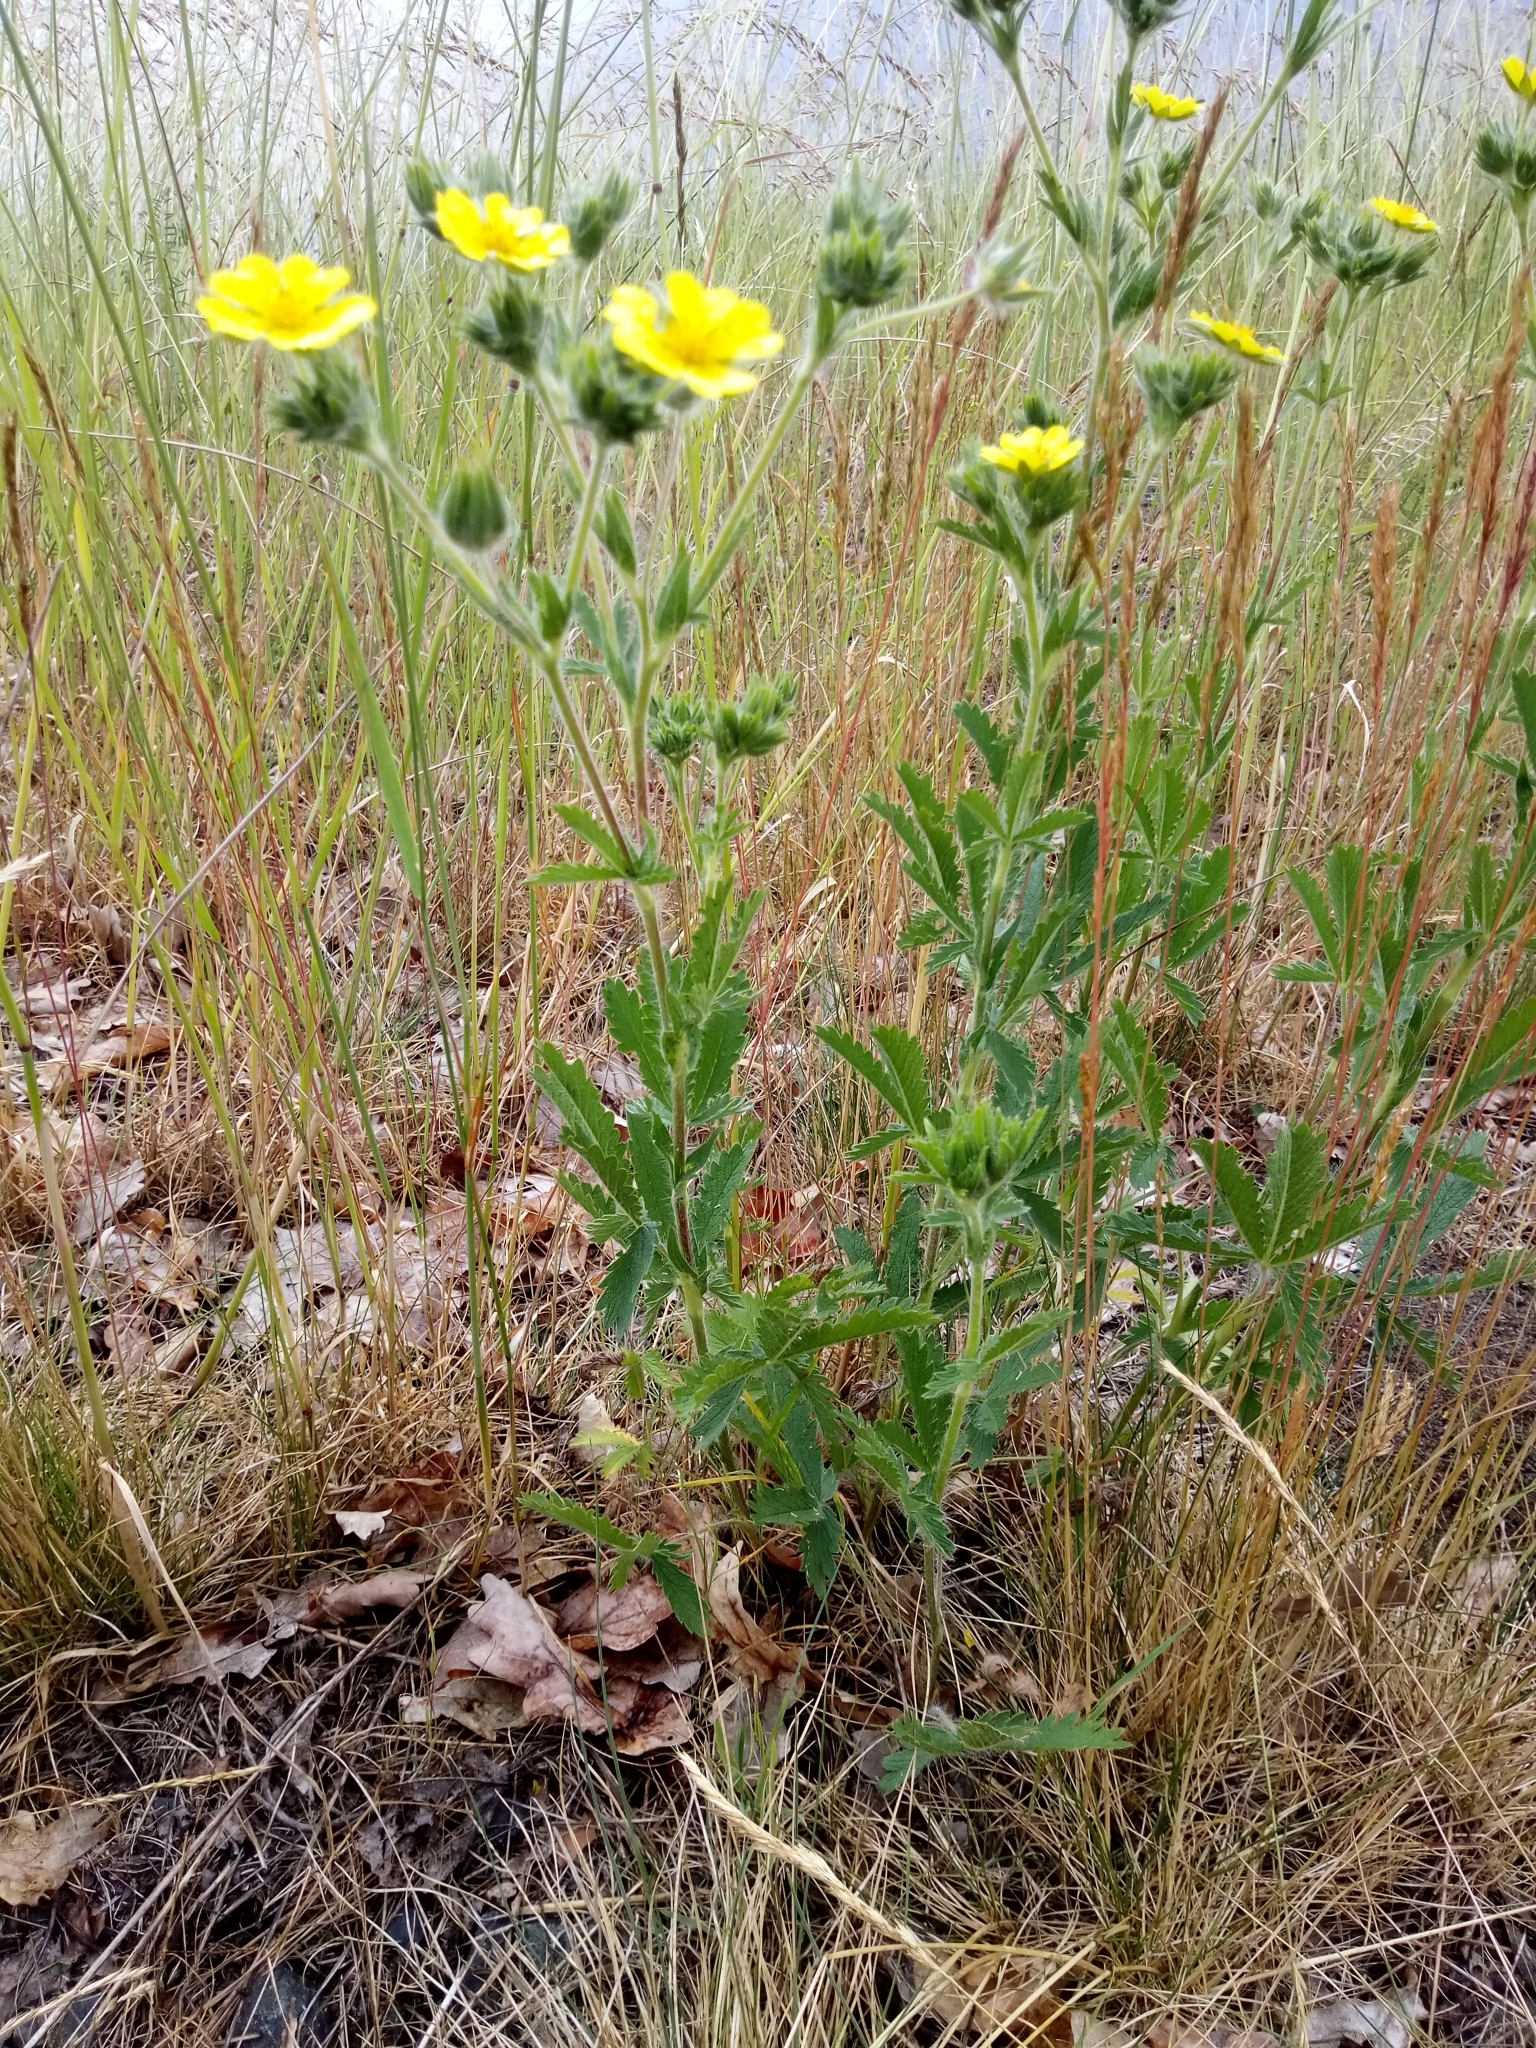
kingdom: Plantae
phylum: Tracheophyta
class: Magnoliopsida
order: Rosales
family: Rosaceae
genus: Potentilla
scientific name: Potentilla recta
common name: Sulphur cinquefoil
